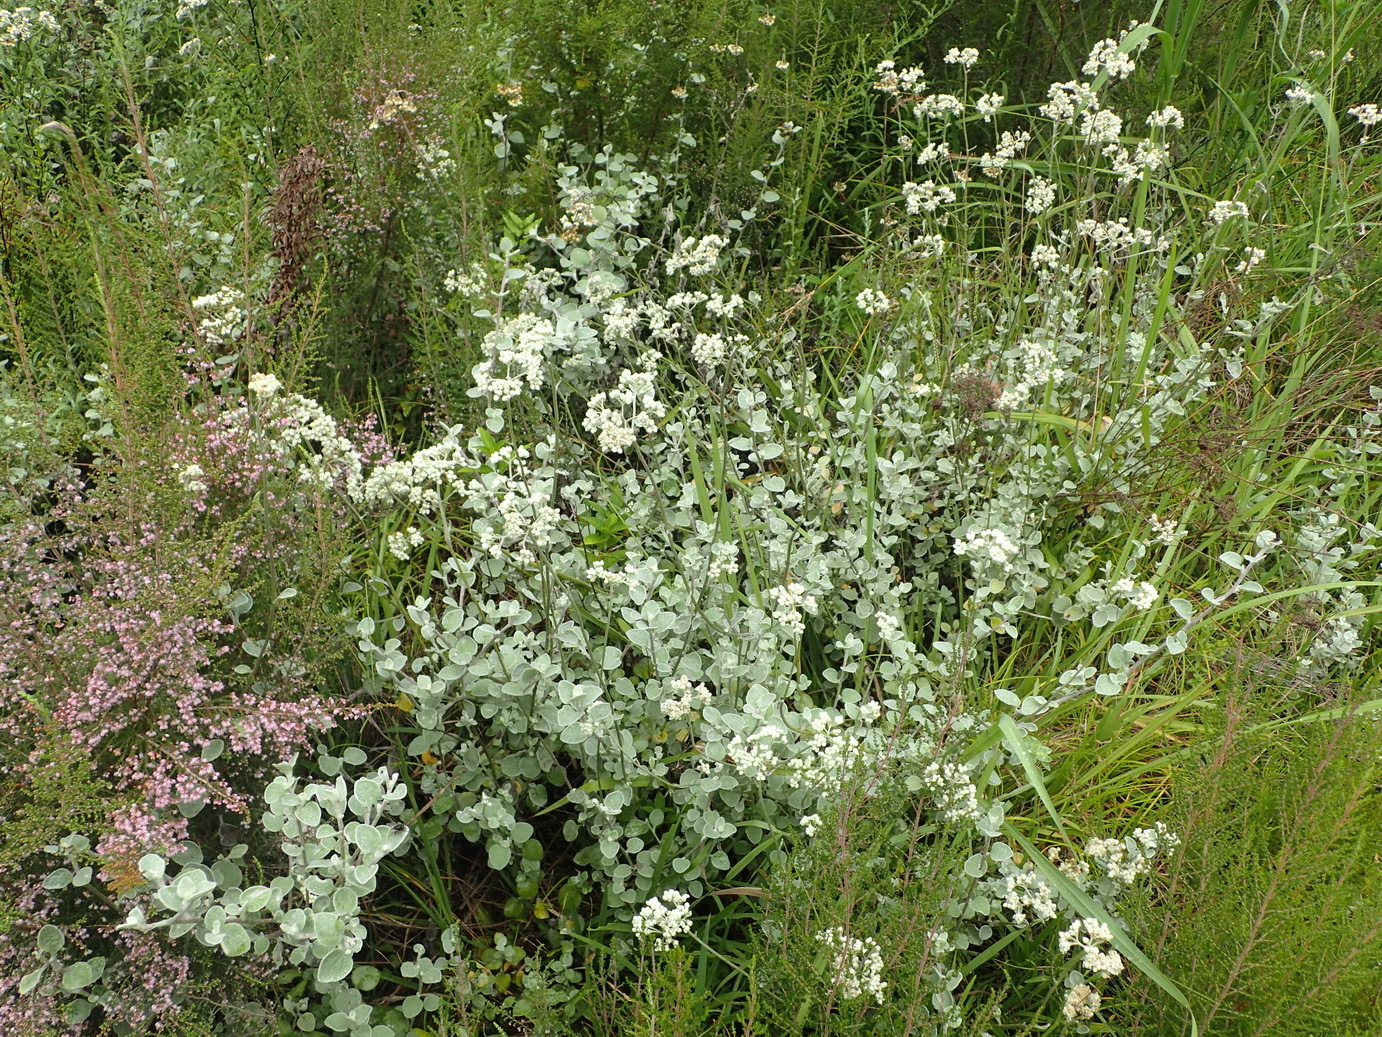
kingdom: Plantae
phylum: Tracheophyta
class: Magnoliopsida
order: Asterales
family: Asteraceae
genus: Helichrysum
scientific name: Helichrysum petiolare
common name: Licorice-plant
